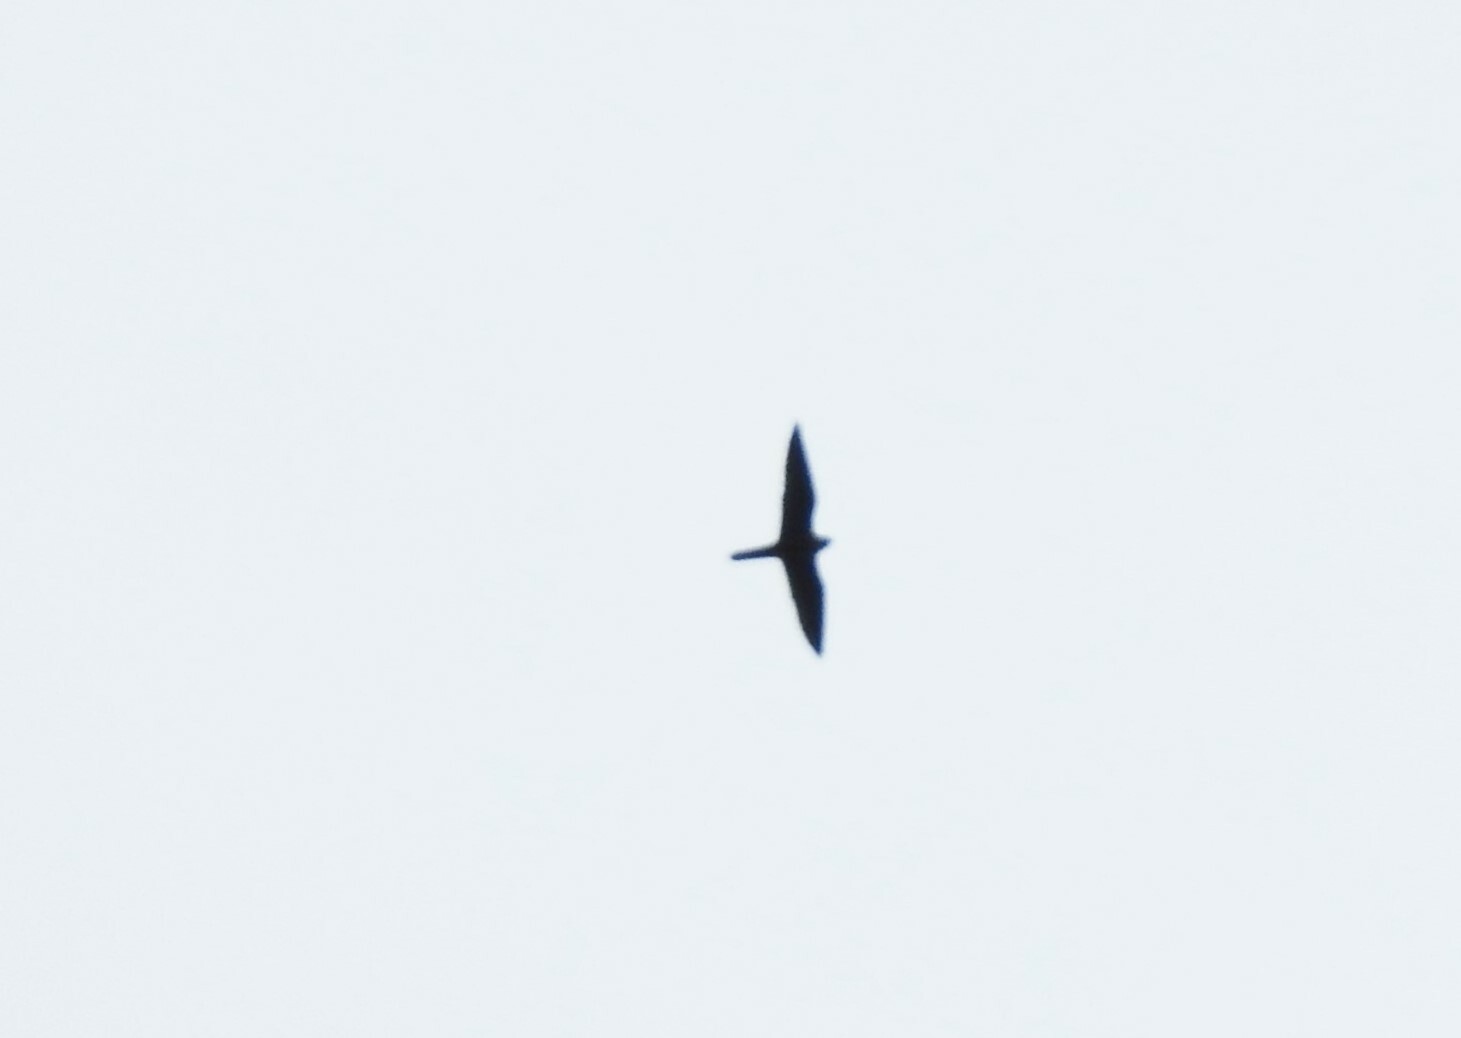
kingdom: Animalia
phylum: Chordata
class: Aves
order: Falconiformes
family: Falconidae
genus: Falco
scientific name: Falco subbuteo
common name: Eurasian hobby
